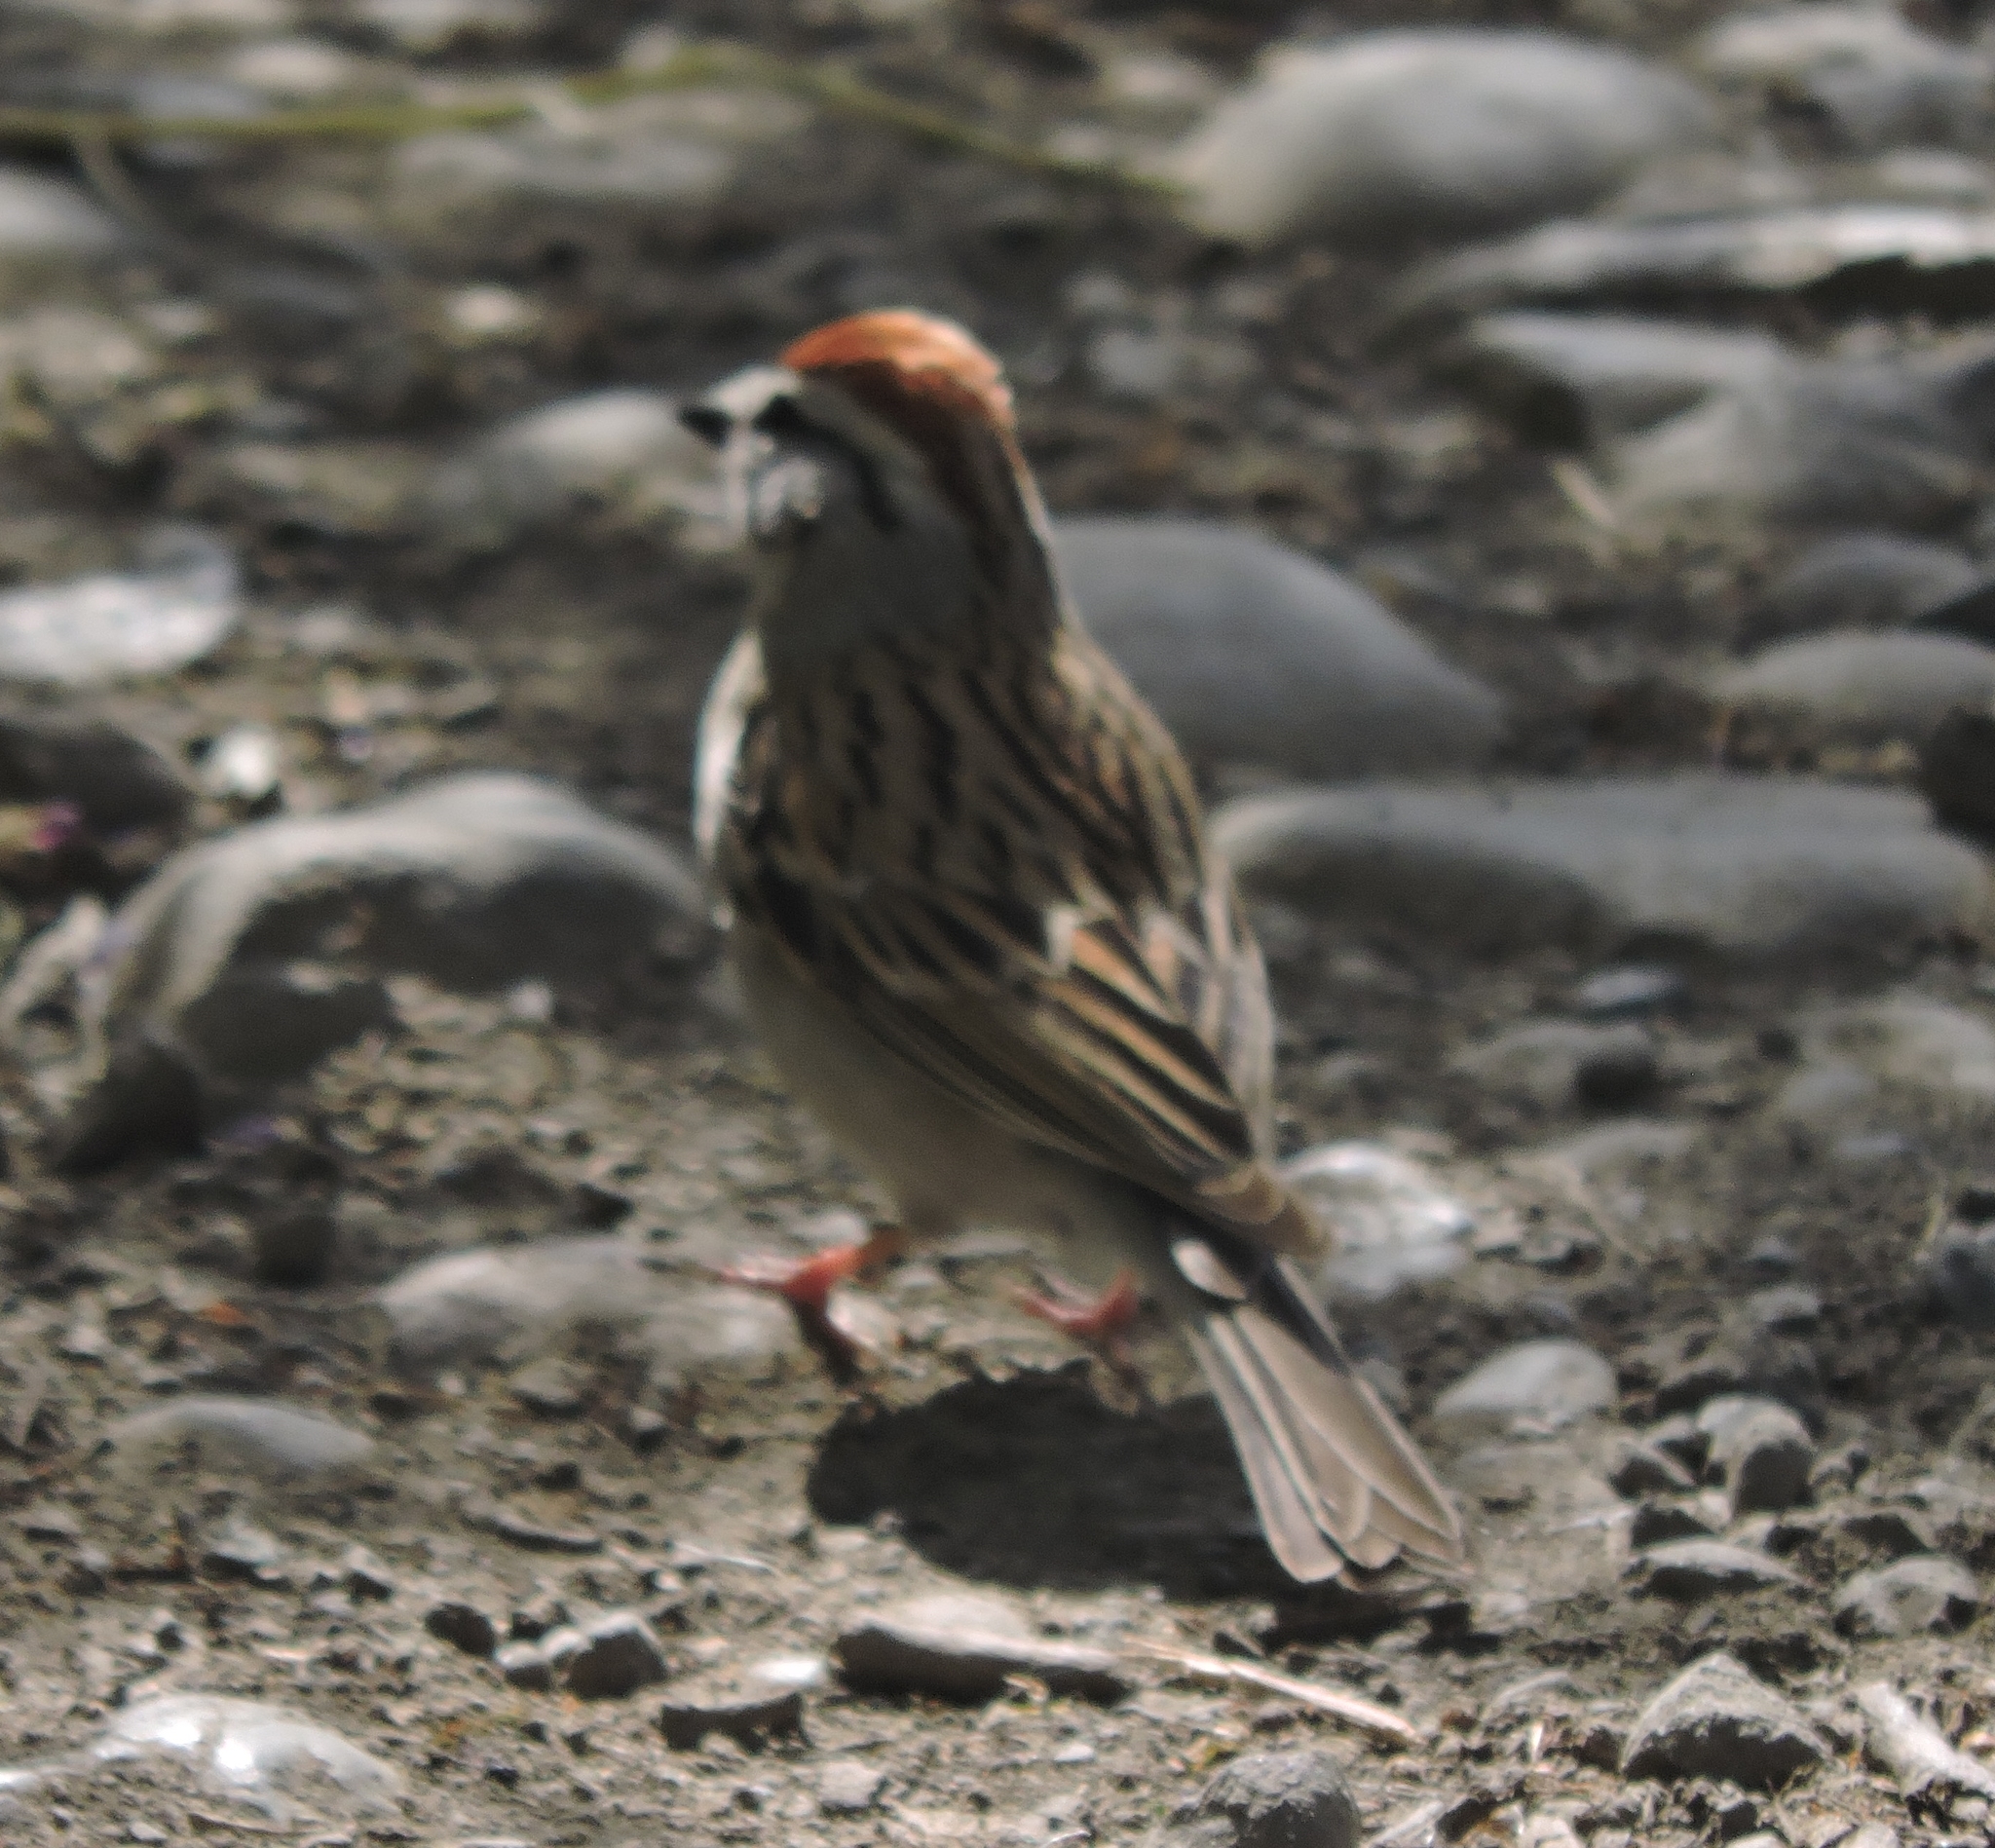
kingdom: Animalia
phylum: Chordata
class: Aves
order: Passeriformes
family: Passerellidae
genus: Spizella
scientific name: Spizella passerina
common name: Chipping sparrow
